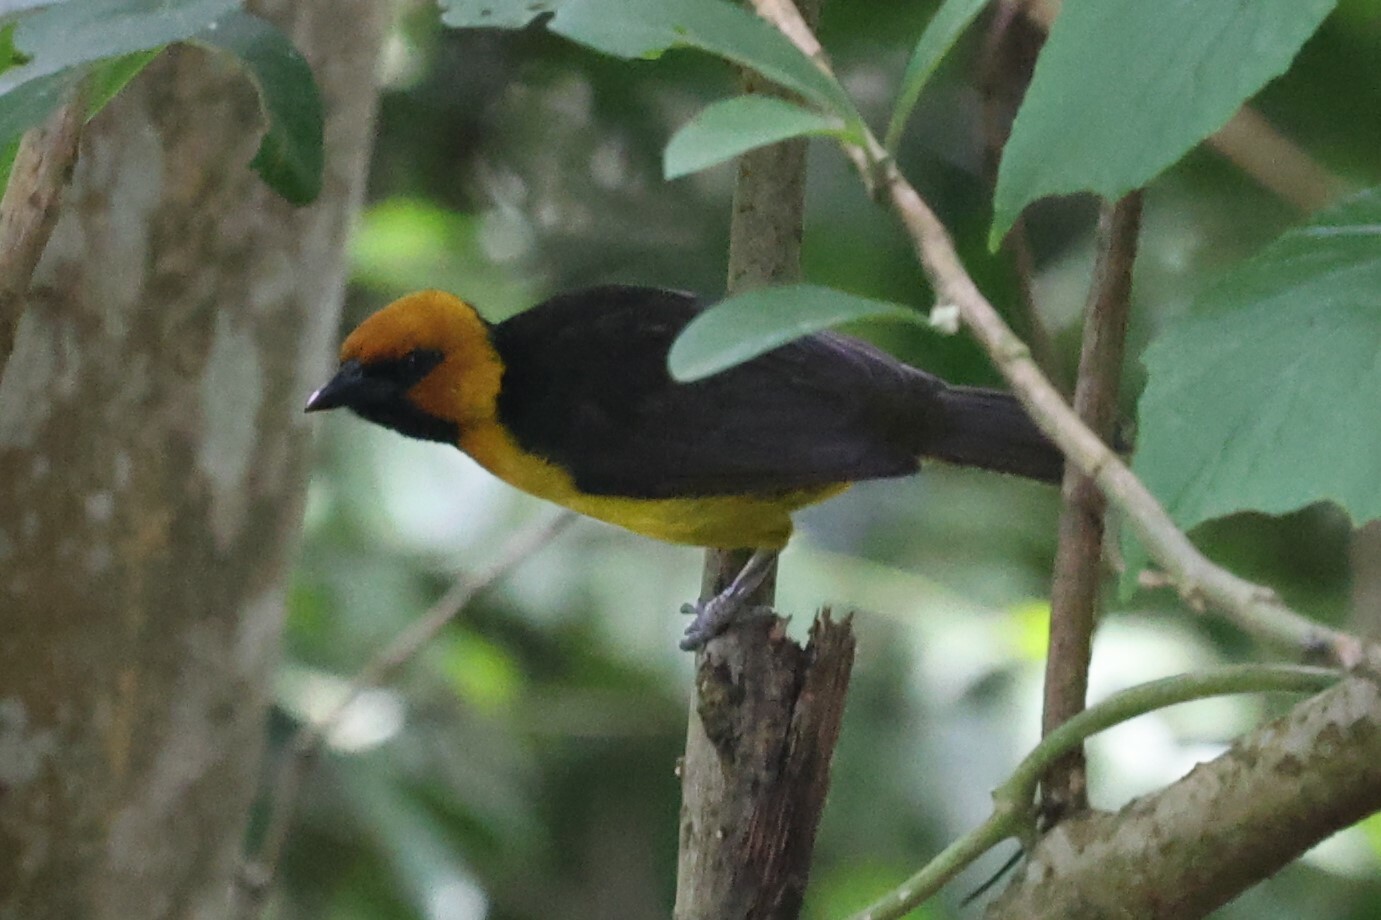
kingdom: Animalia
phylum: Chordata
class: Aves
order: Passeriformes
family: Ploceidae
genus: Ploceus
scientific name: Ploceus nigricollis
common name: Black-necked weaver
